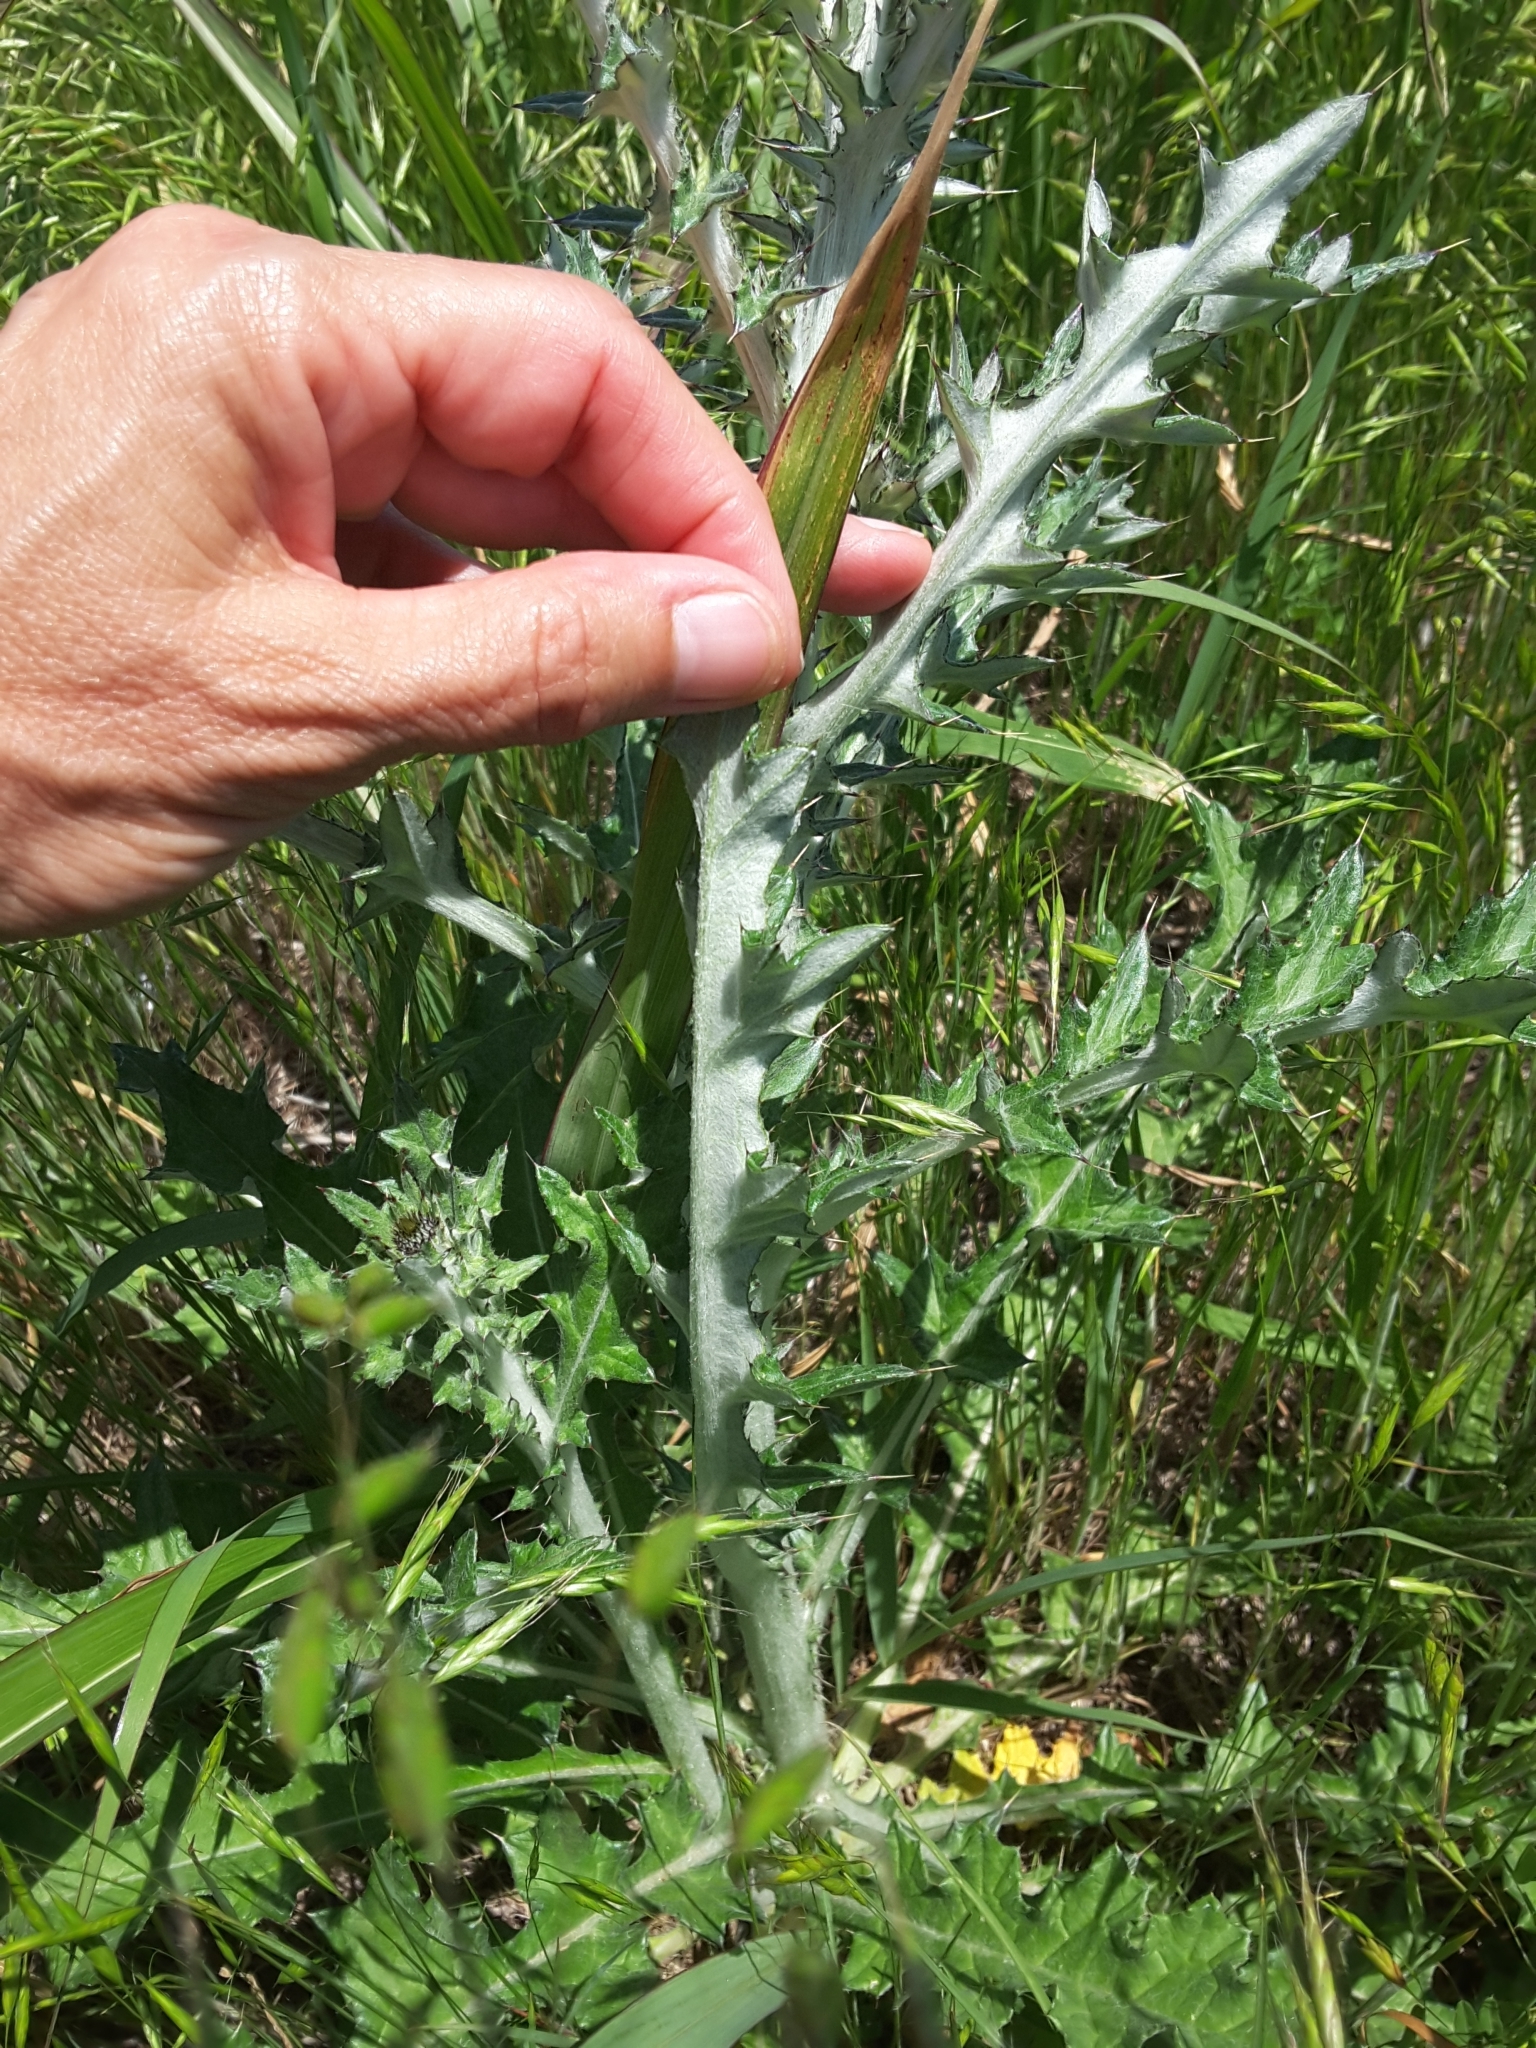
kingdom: Plantae
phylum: Tracheophyta
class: Magnoliopsida
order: Asterales
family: Asteraceae
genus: Cirsium
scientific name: Cirsium texanum
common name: Texas purple thistle
